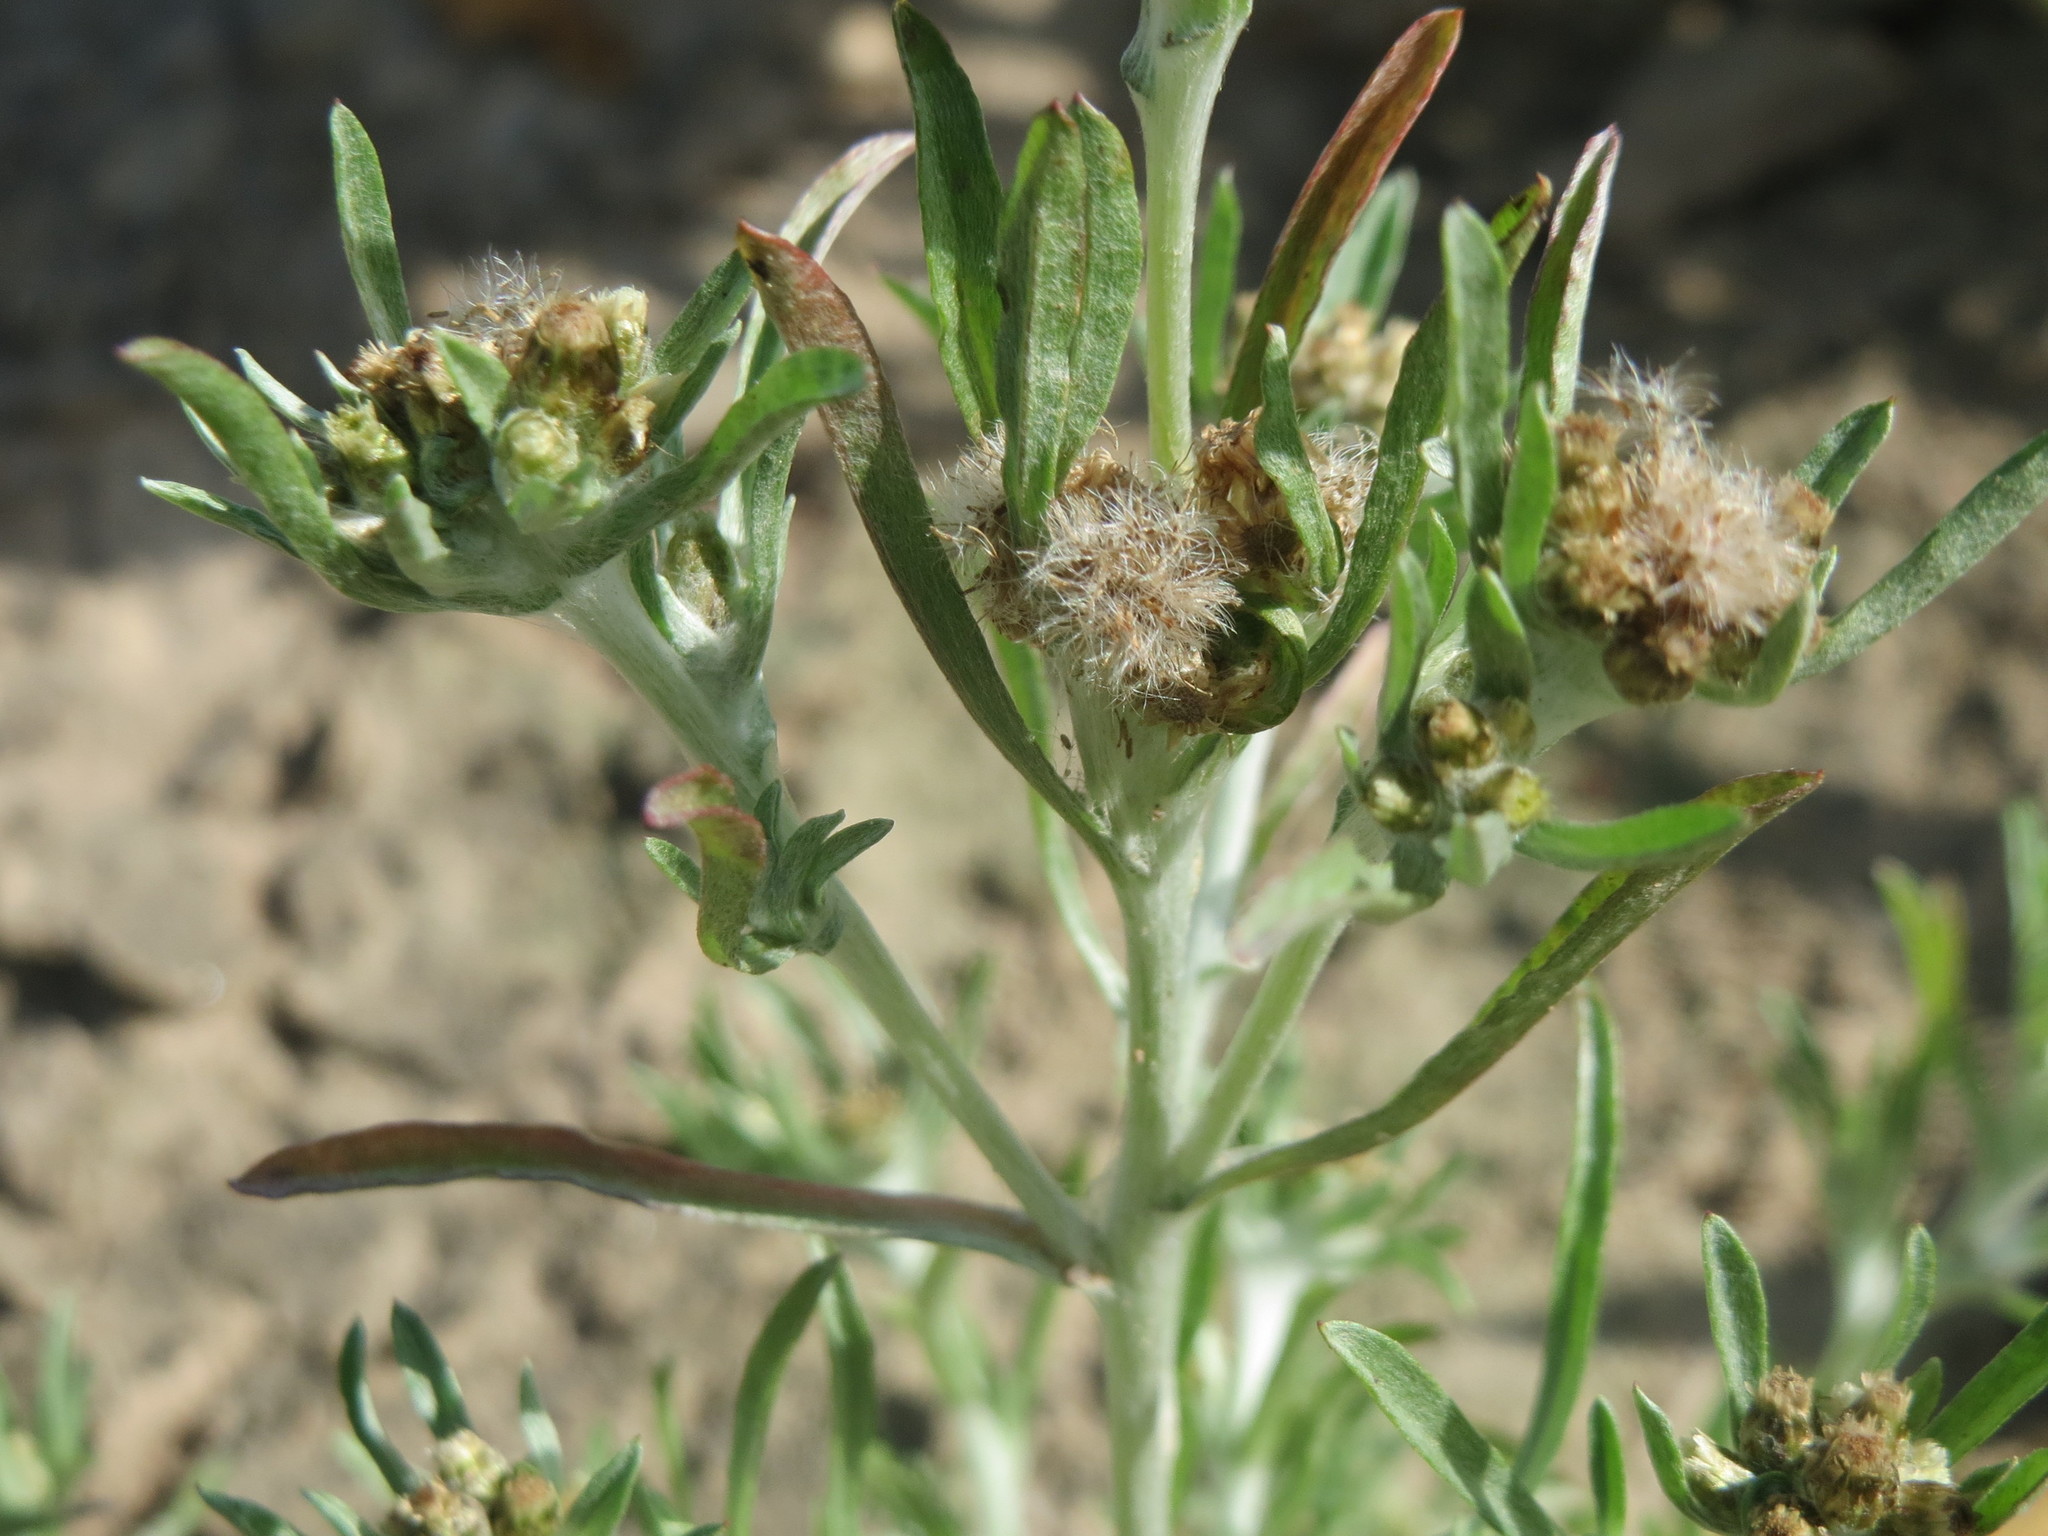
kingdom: Plantae
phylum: Tracheophyta
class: Magnoliopsida
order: Asterales
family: Asteraceae
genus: Gnaphalium
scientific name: Gnaphalium uliginosum
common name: Marsh cudweed
